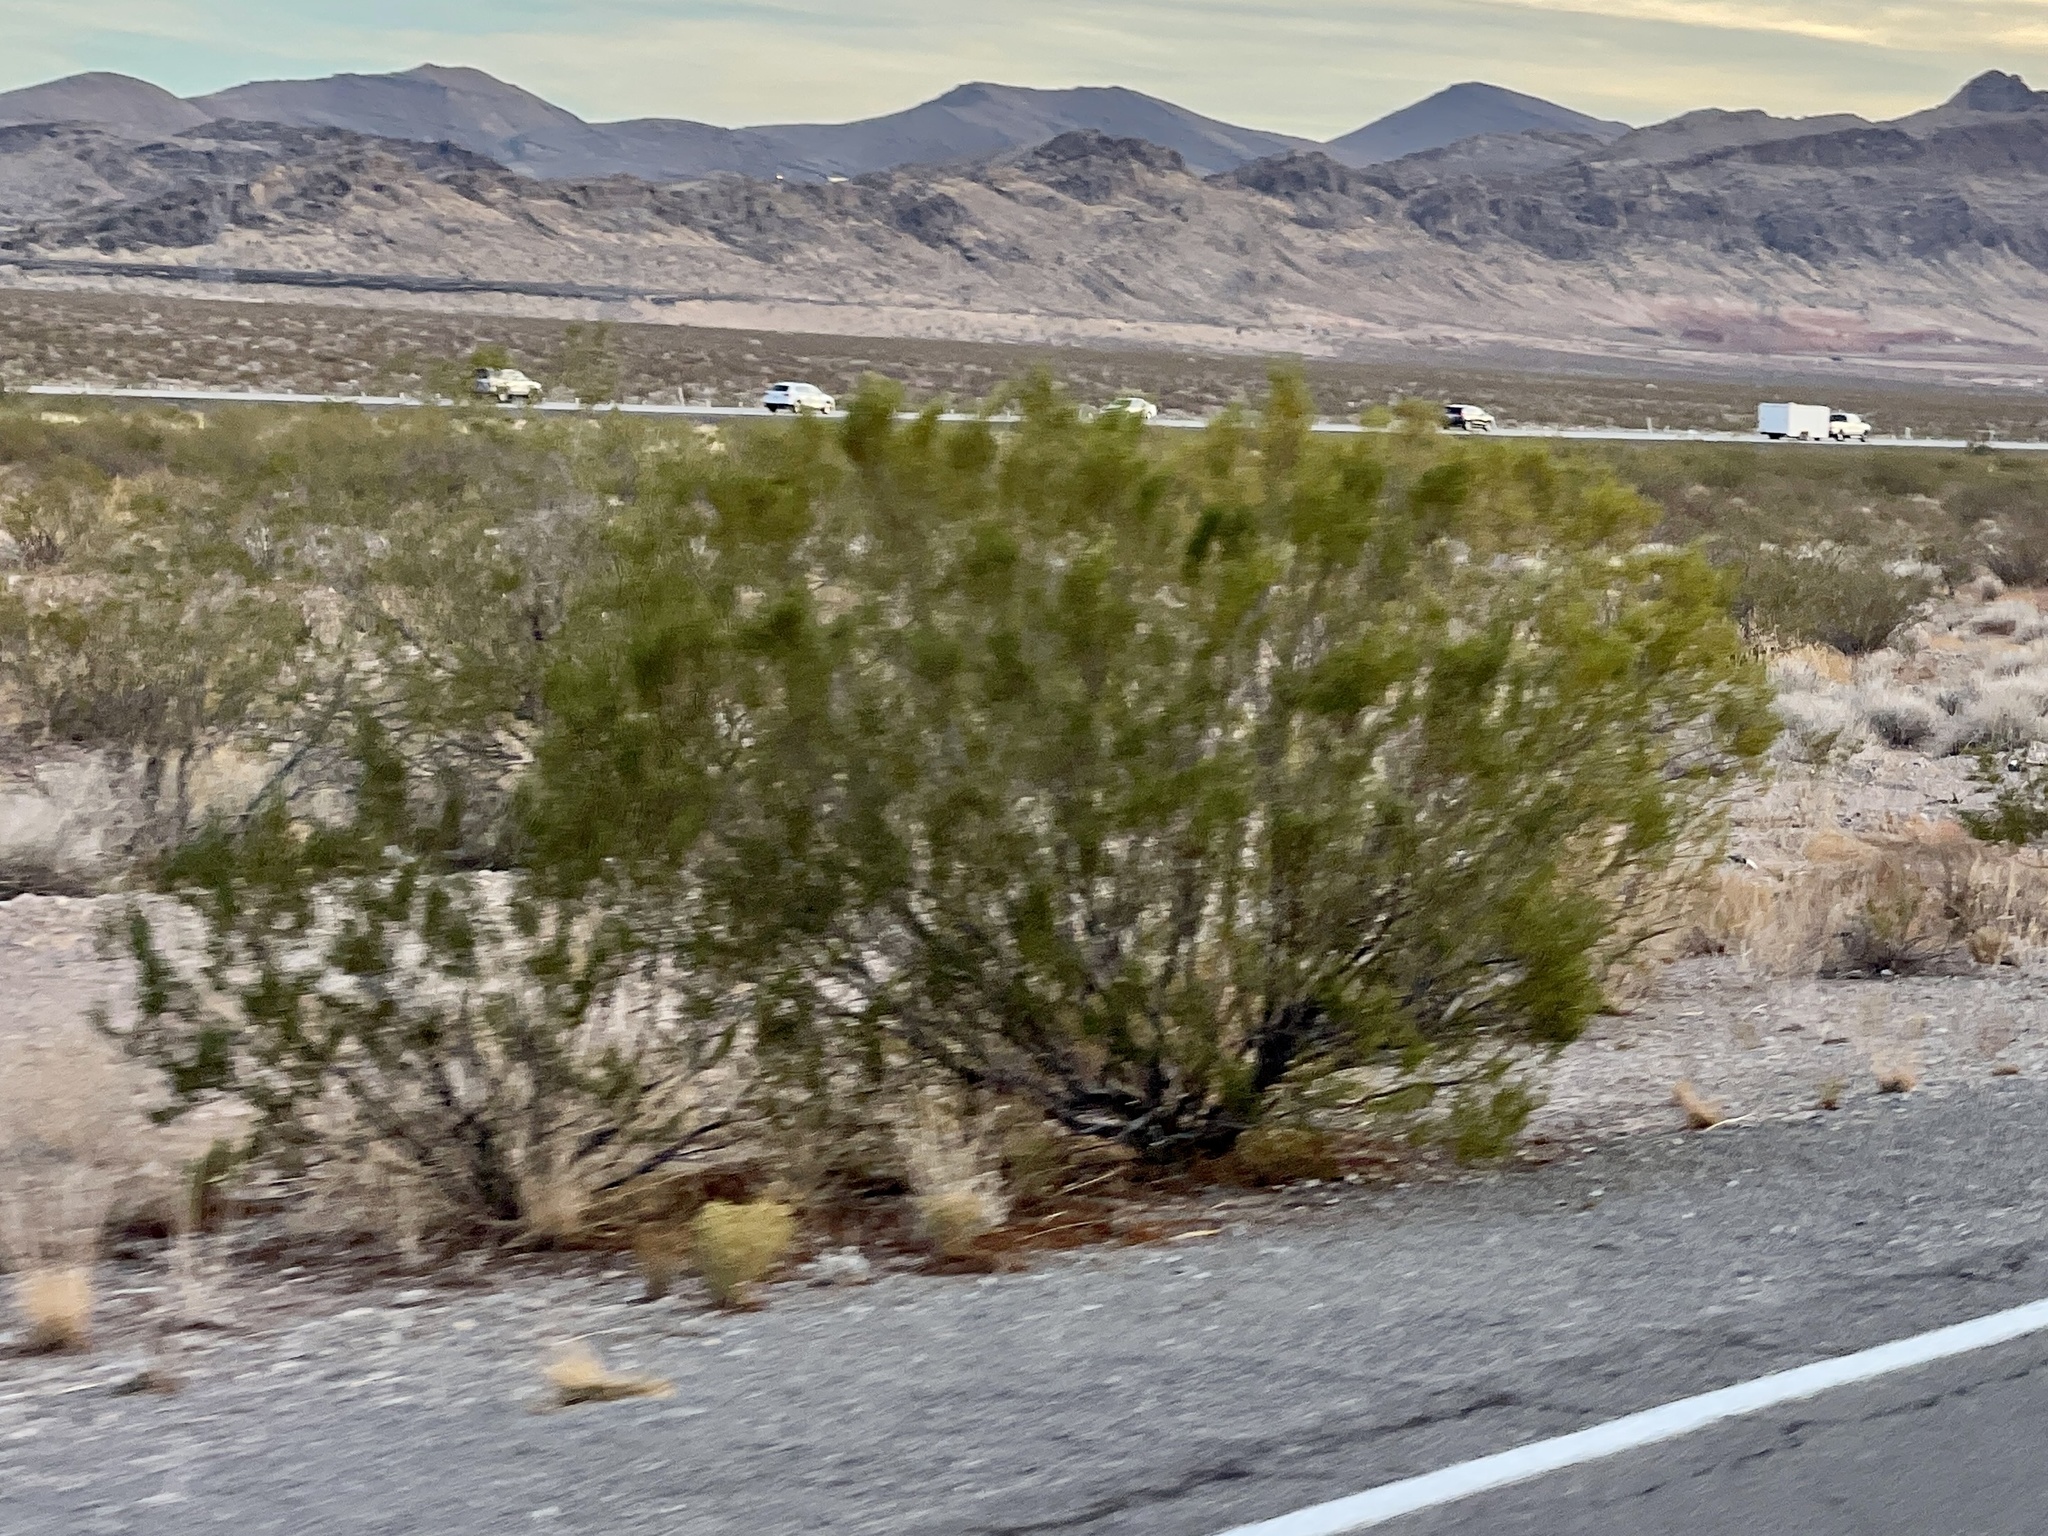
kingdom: Plantae
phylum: Tracheophyta
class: Magnoliopsida
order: Zygophyllales
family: Zygophyllaceae
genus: Larrea
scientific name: Larrea tridentata
